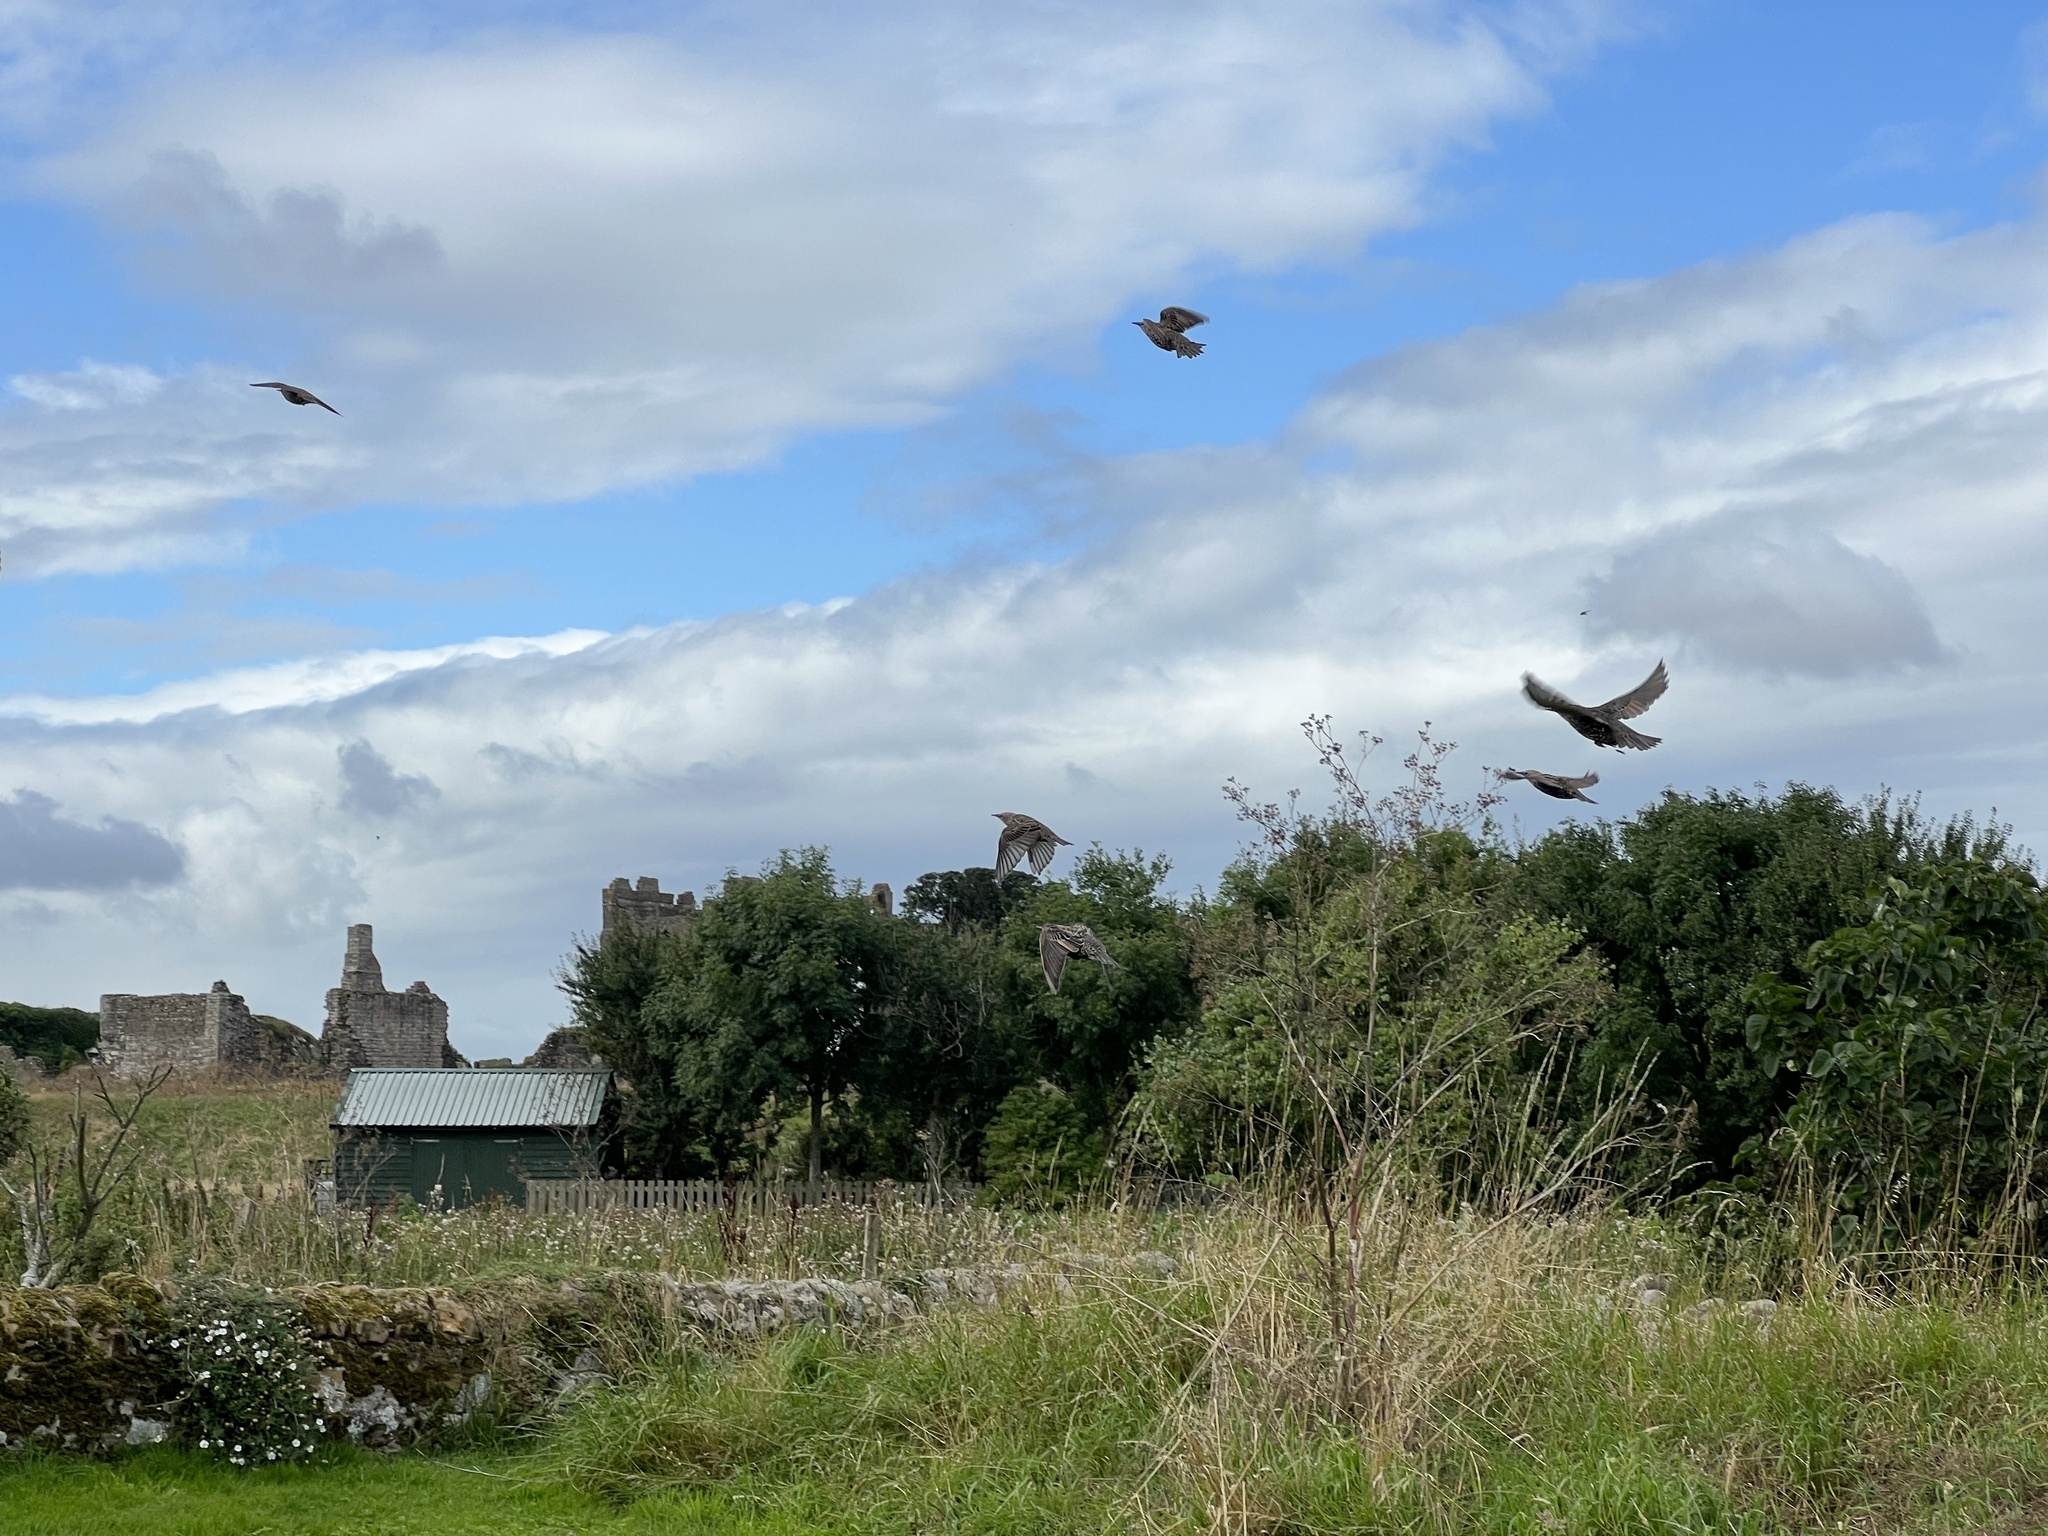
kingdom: Animalia
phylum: Chordata
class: Aves
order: Passeriformes
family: Sturnidae
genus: Sturnus
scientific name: Sturnus vulgaris
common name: Common starling
